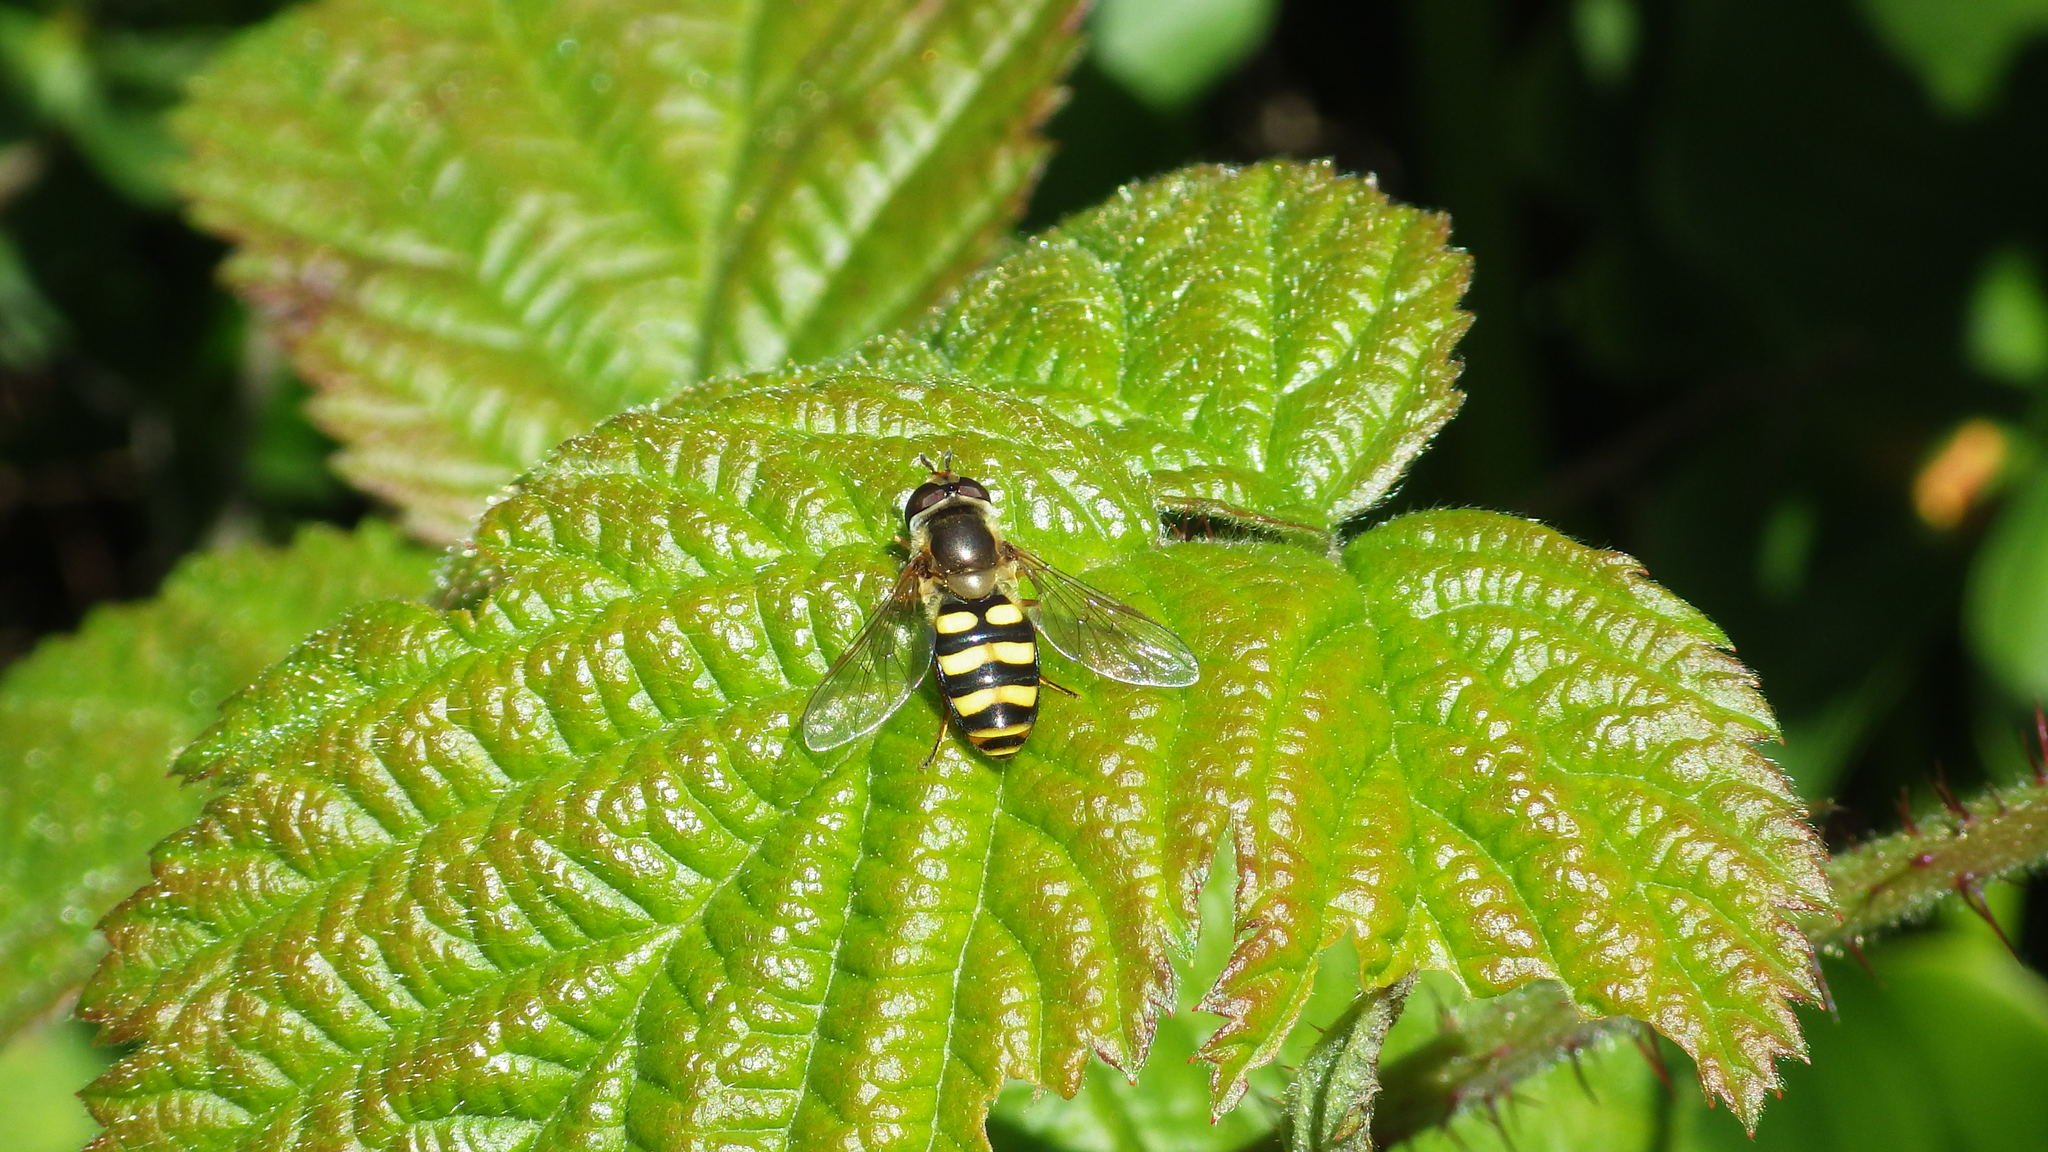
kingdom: Animalia
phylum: Arthropoda
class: Insecta
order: Diptera
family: Syrphidae
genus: Eupeodes
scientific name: Eupeodes fumipennis
